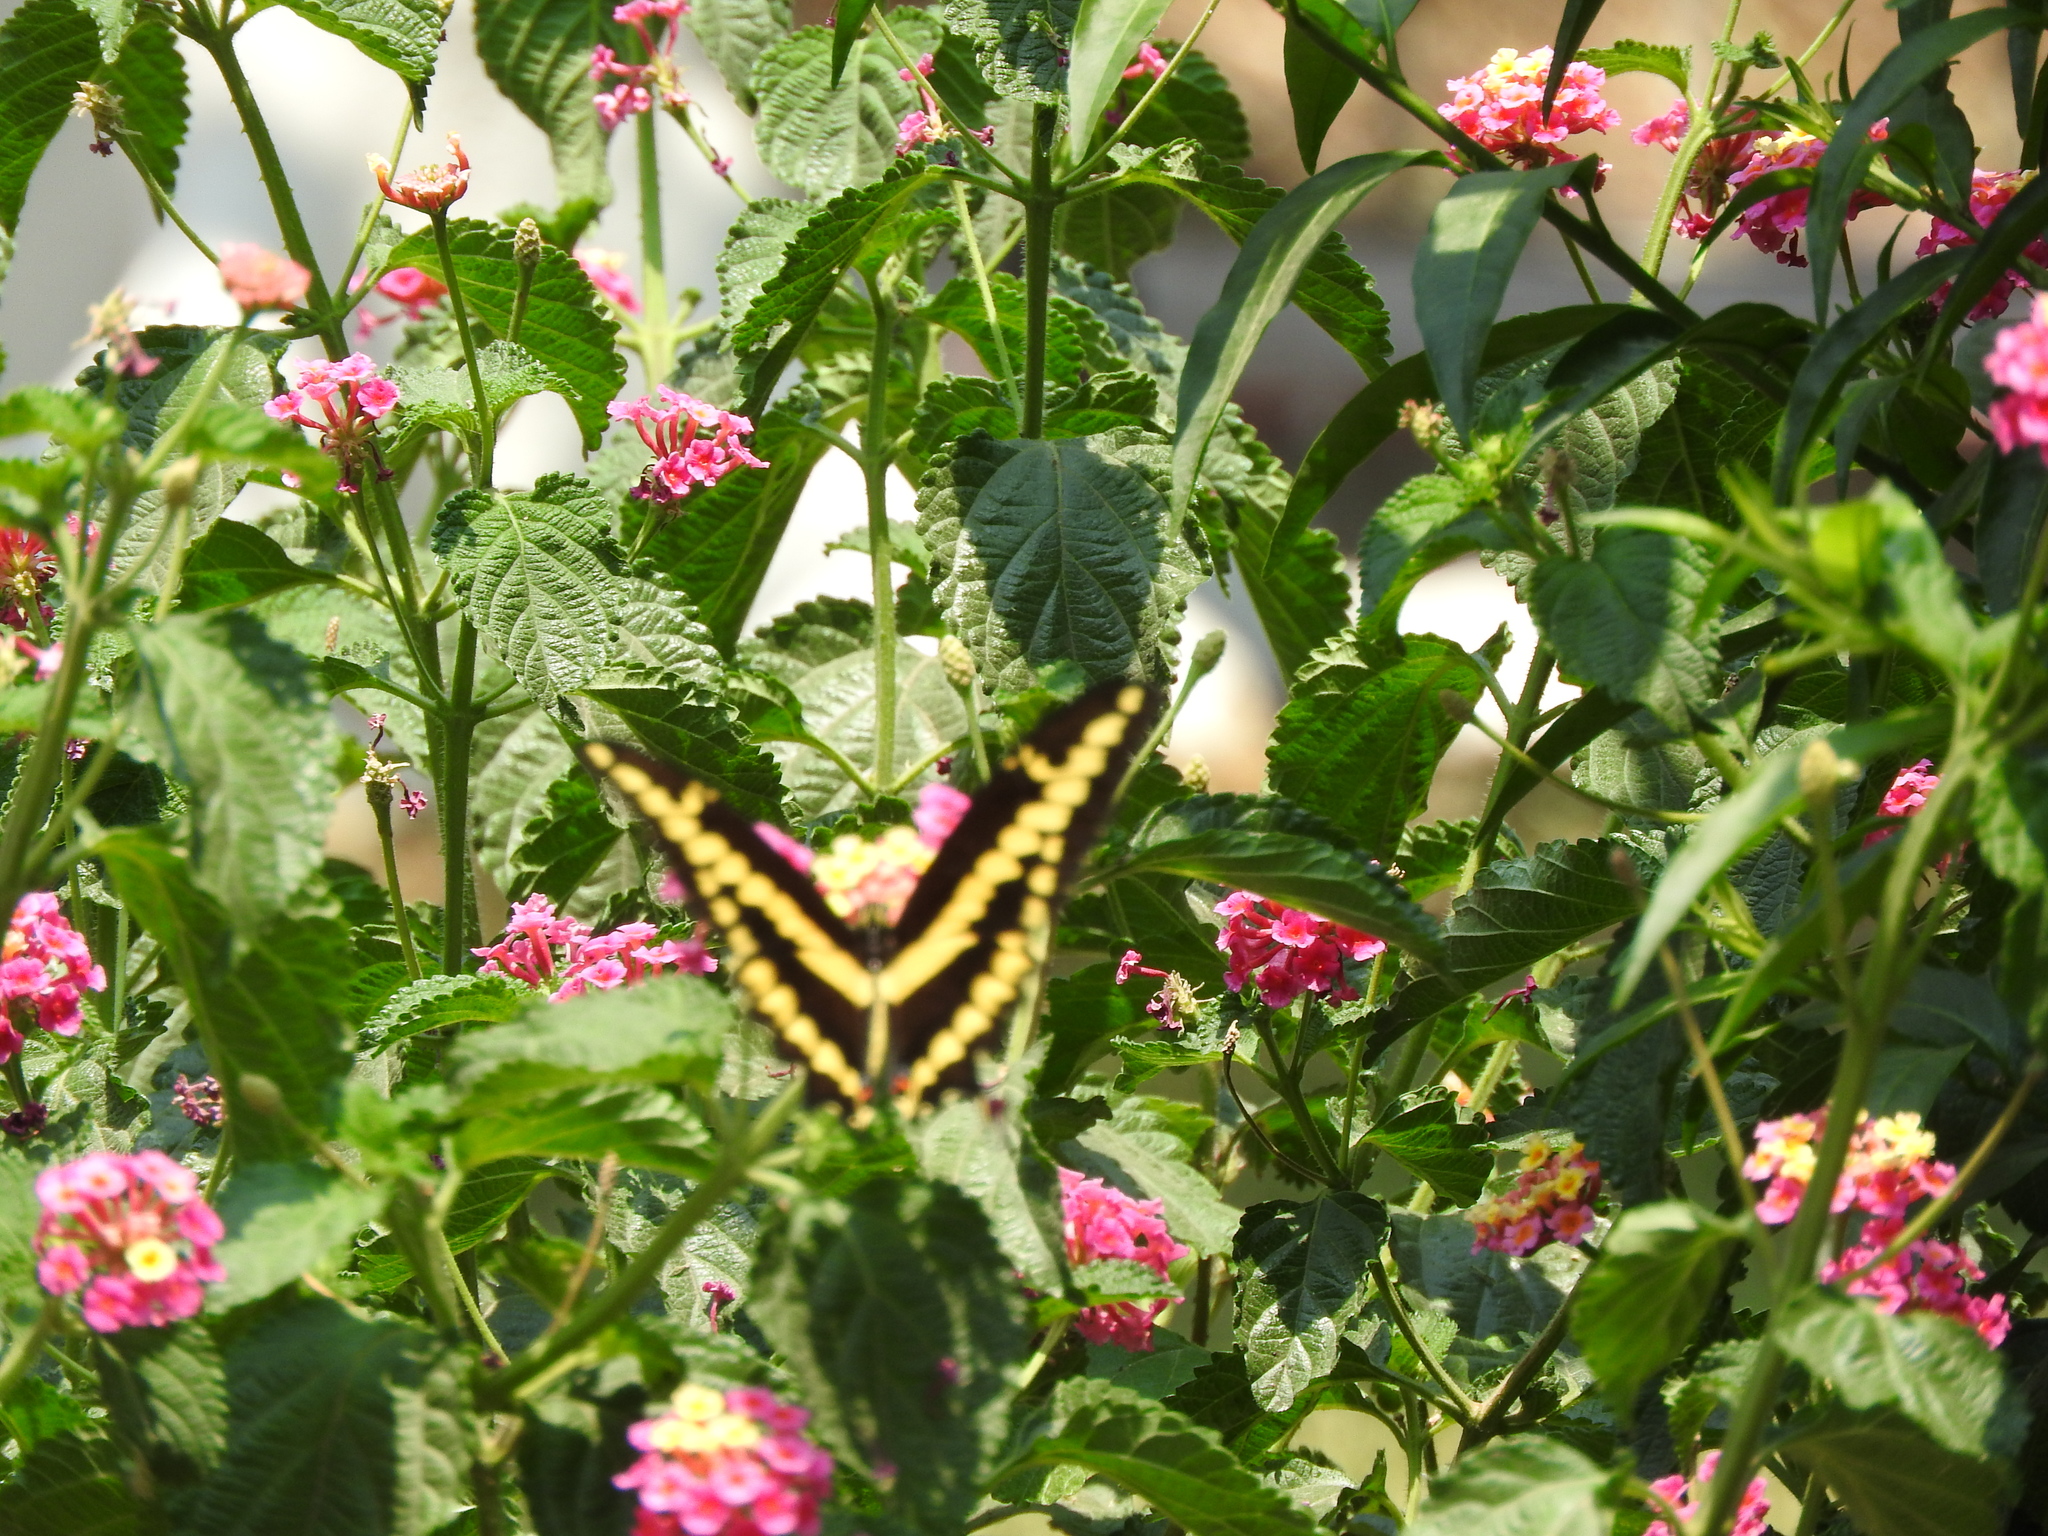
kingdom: Animalia
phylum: Arthropoda
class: Insecta
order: Lepidoptera
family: Papilionidae
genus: Papilio
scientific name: Papilio rumiko
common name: Western giant swallowtail
